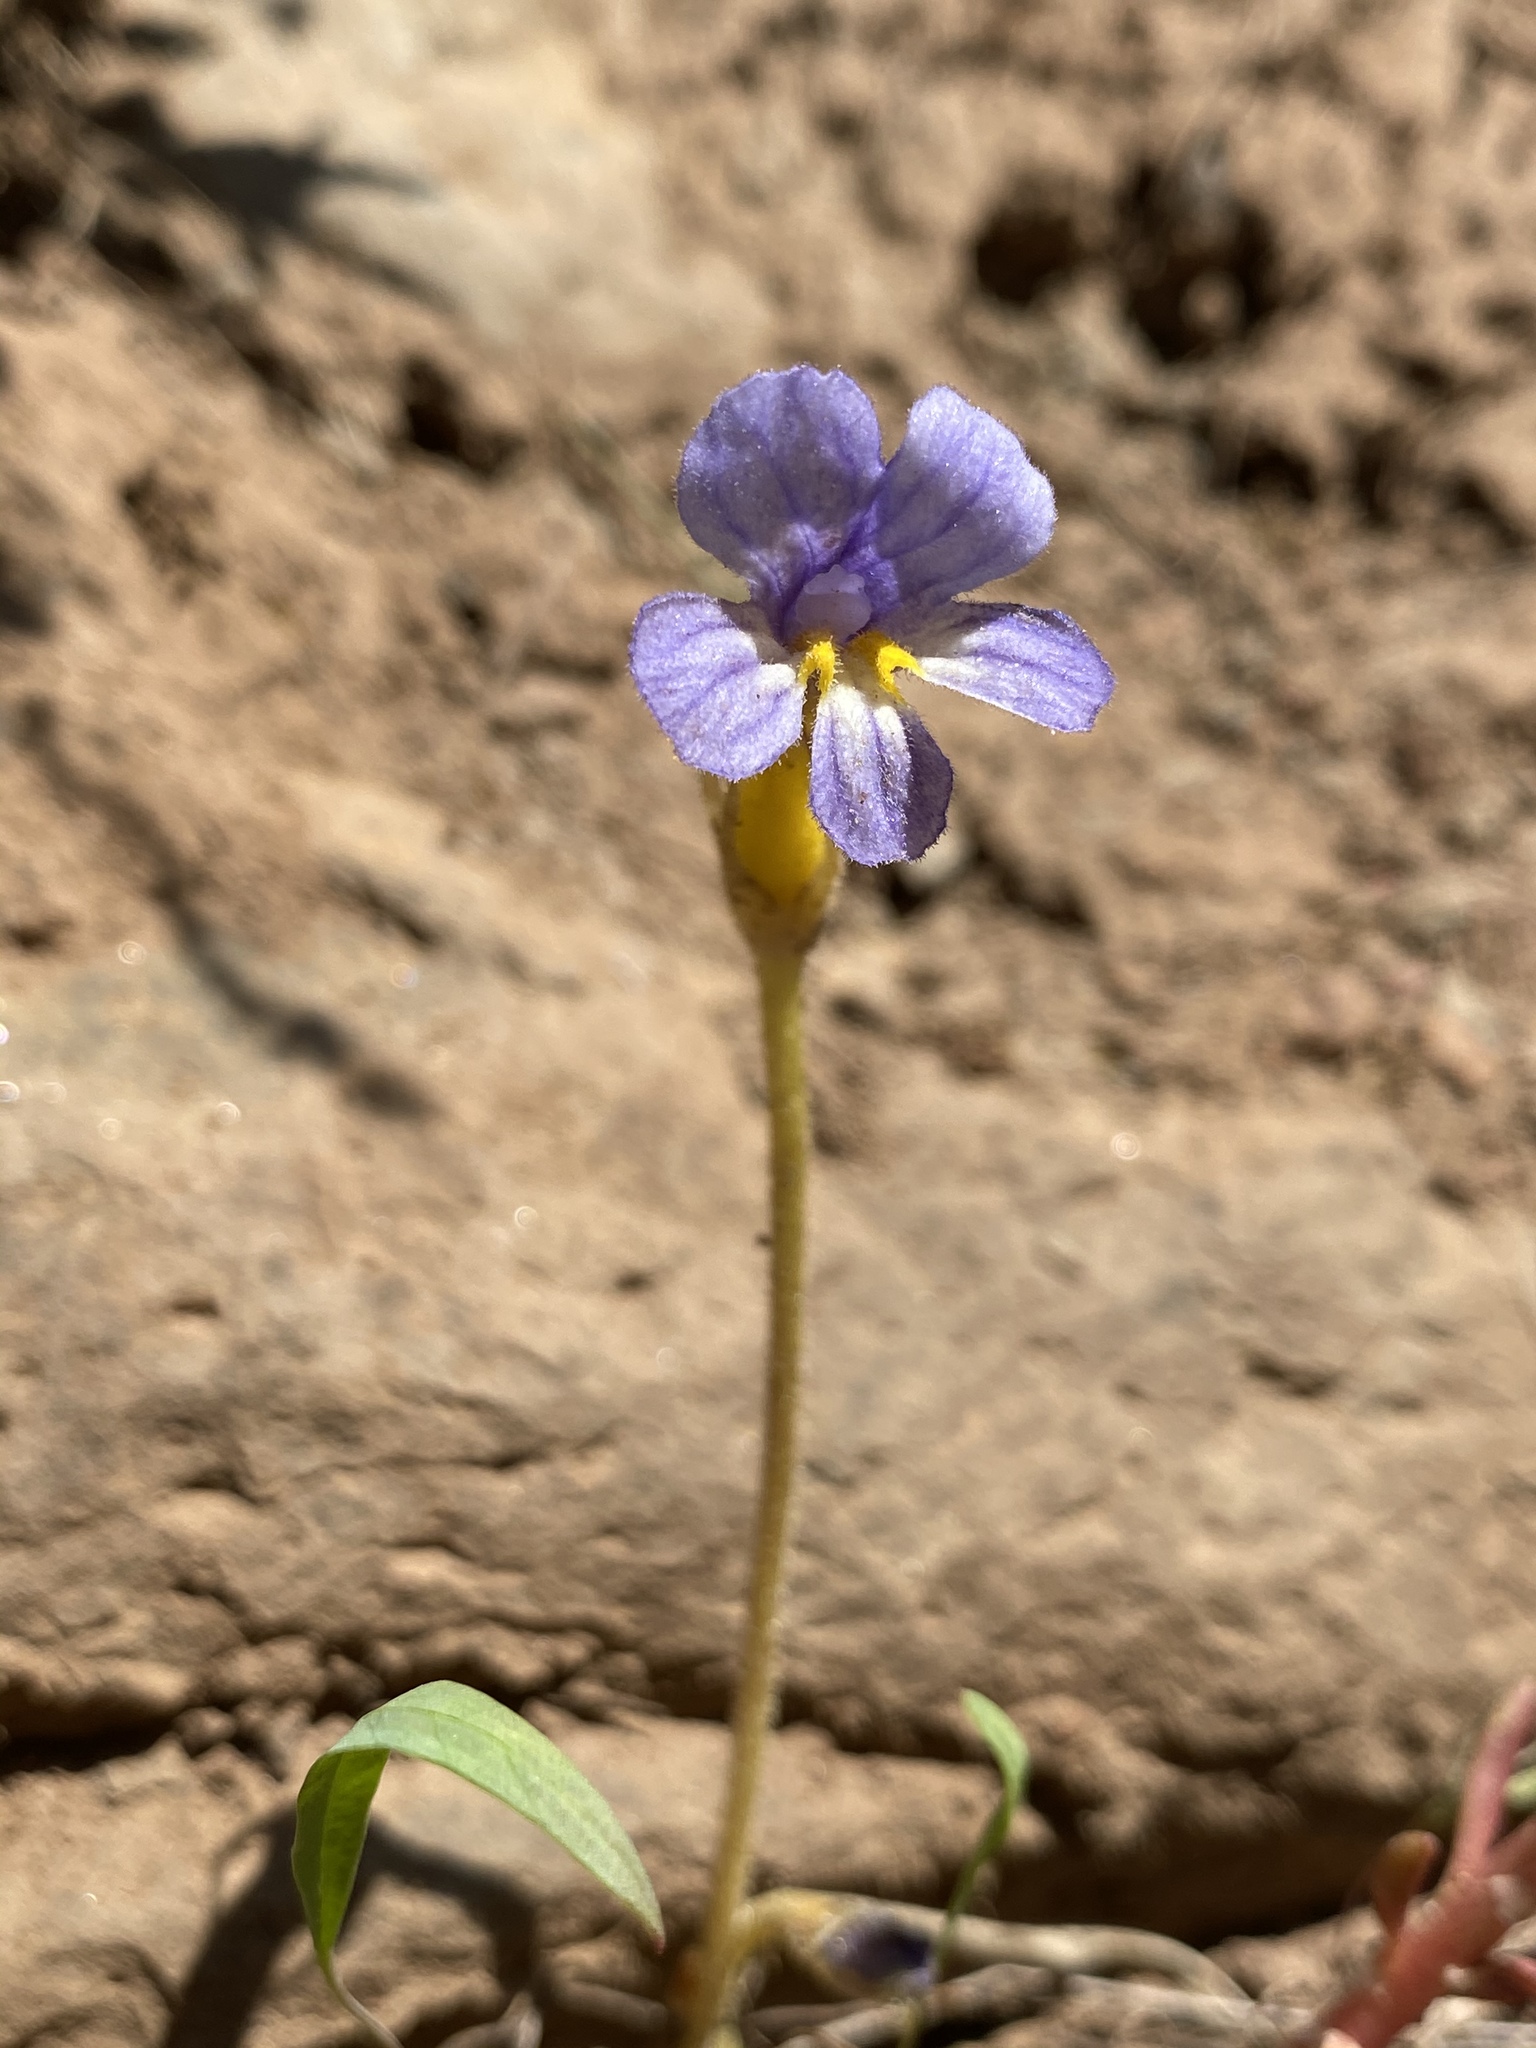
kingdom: Plantae
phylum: Tracheophyta
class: Magnoliopsida
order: Lamiales
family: Orobanchaceae
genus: Aphyllon
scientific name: Aphyllon uniflorum
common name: One-flowered broomrape
